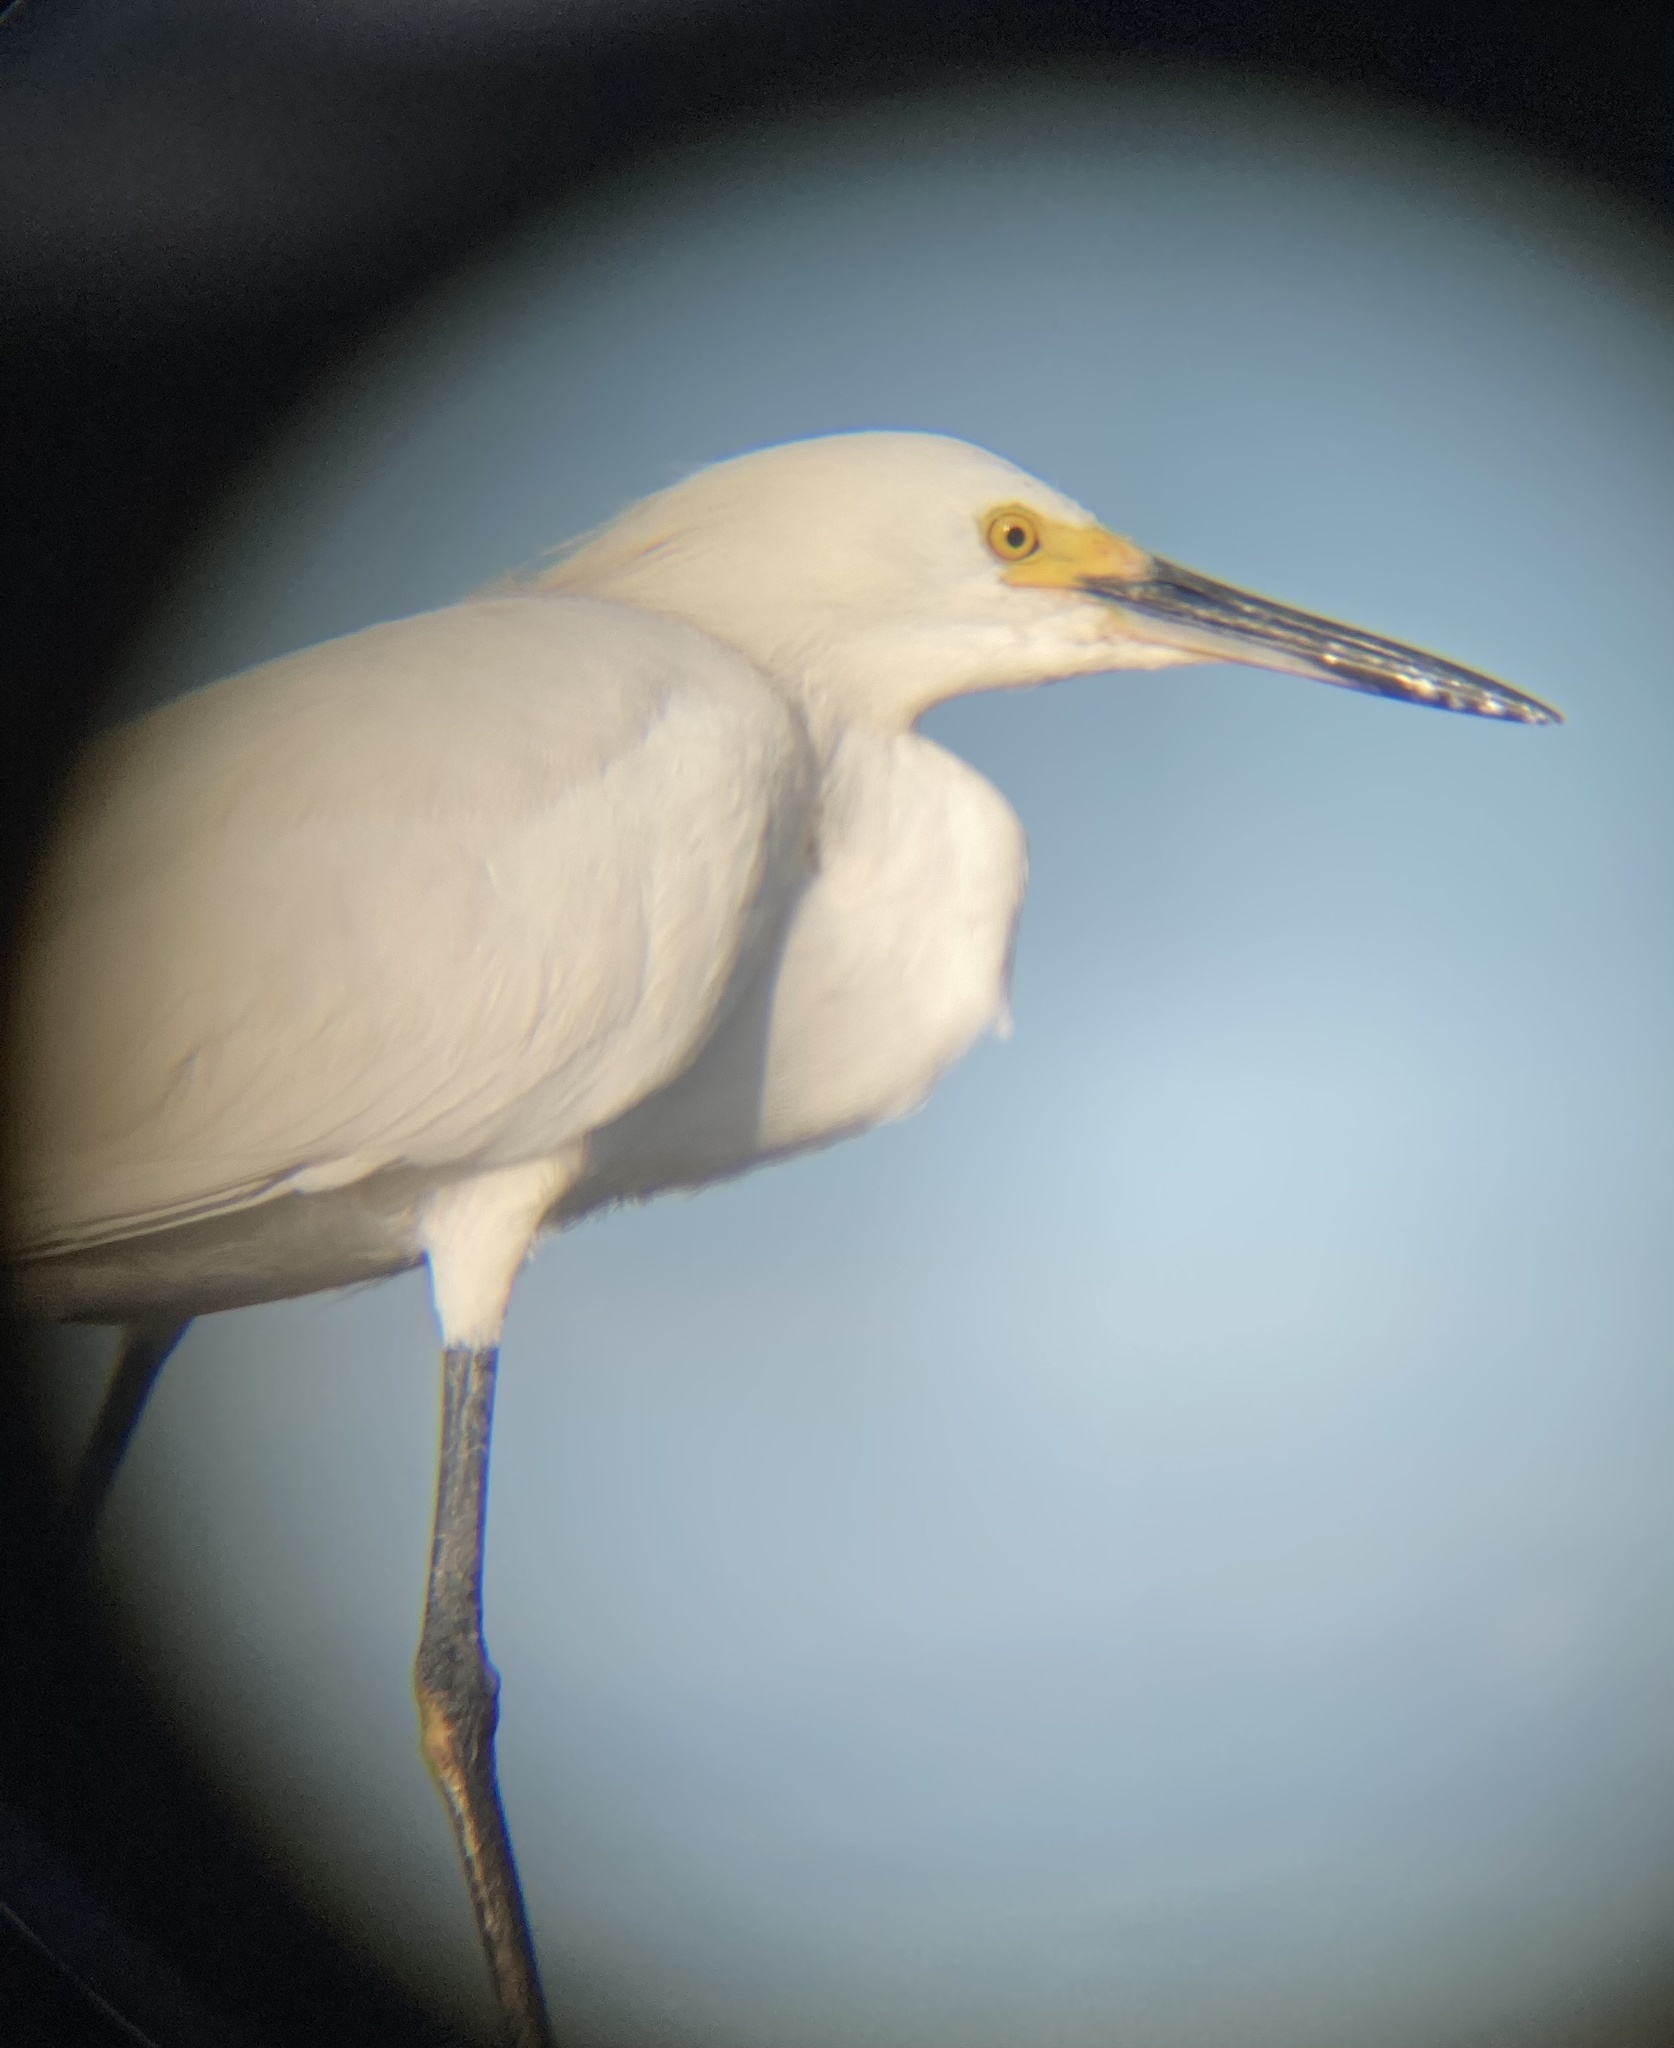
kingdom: Animalia
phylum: Chordata
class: Aves
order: Pelecaniformes
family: Ardeidae
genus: Egretta
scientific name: Egretta thula
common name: Snowy egret
